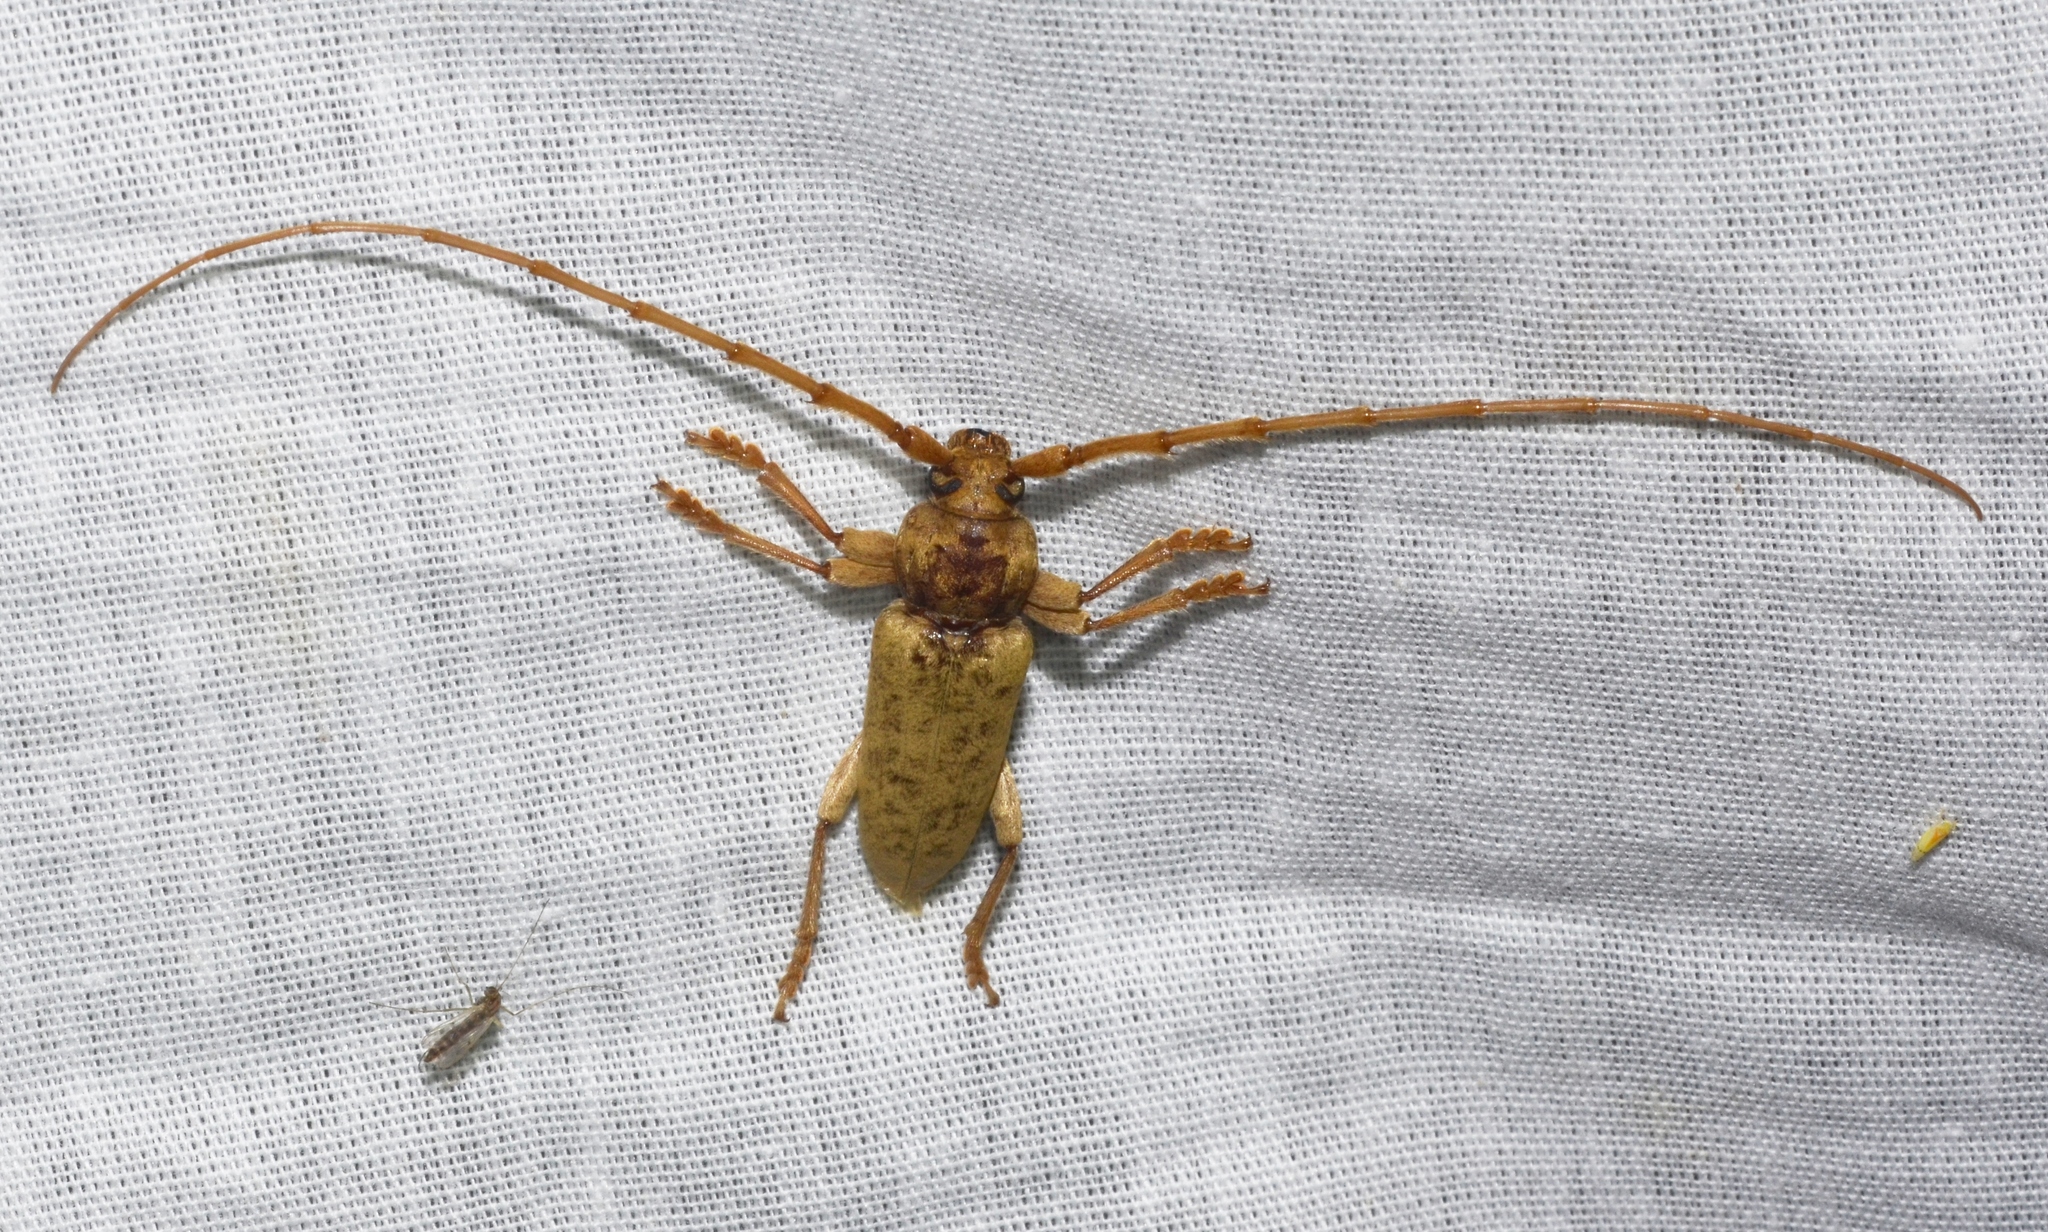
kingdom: Animalia
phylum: Arthropoda
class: Insecta
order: Coleoptera
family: Cerambycidae
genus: Enaphalodes
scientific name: Enaphalodes rufulus
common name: Red oak borer
